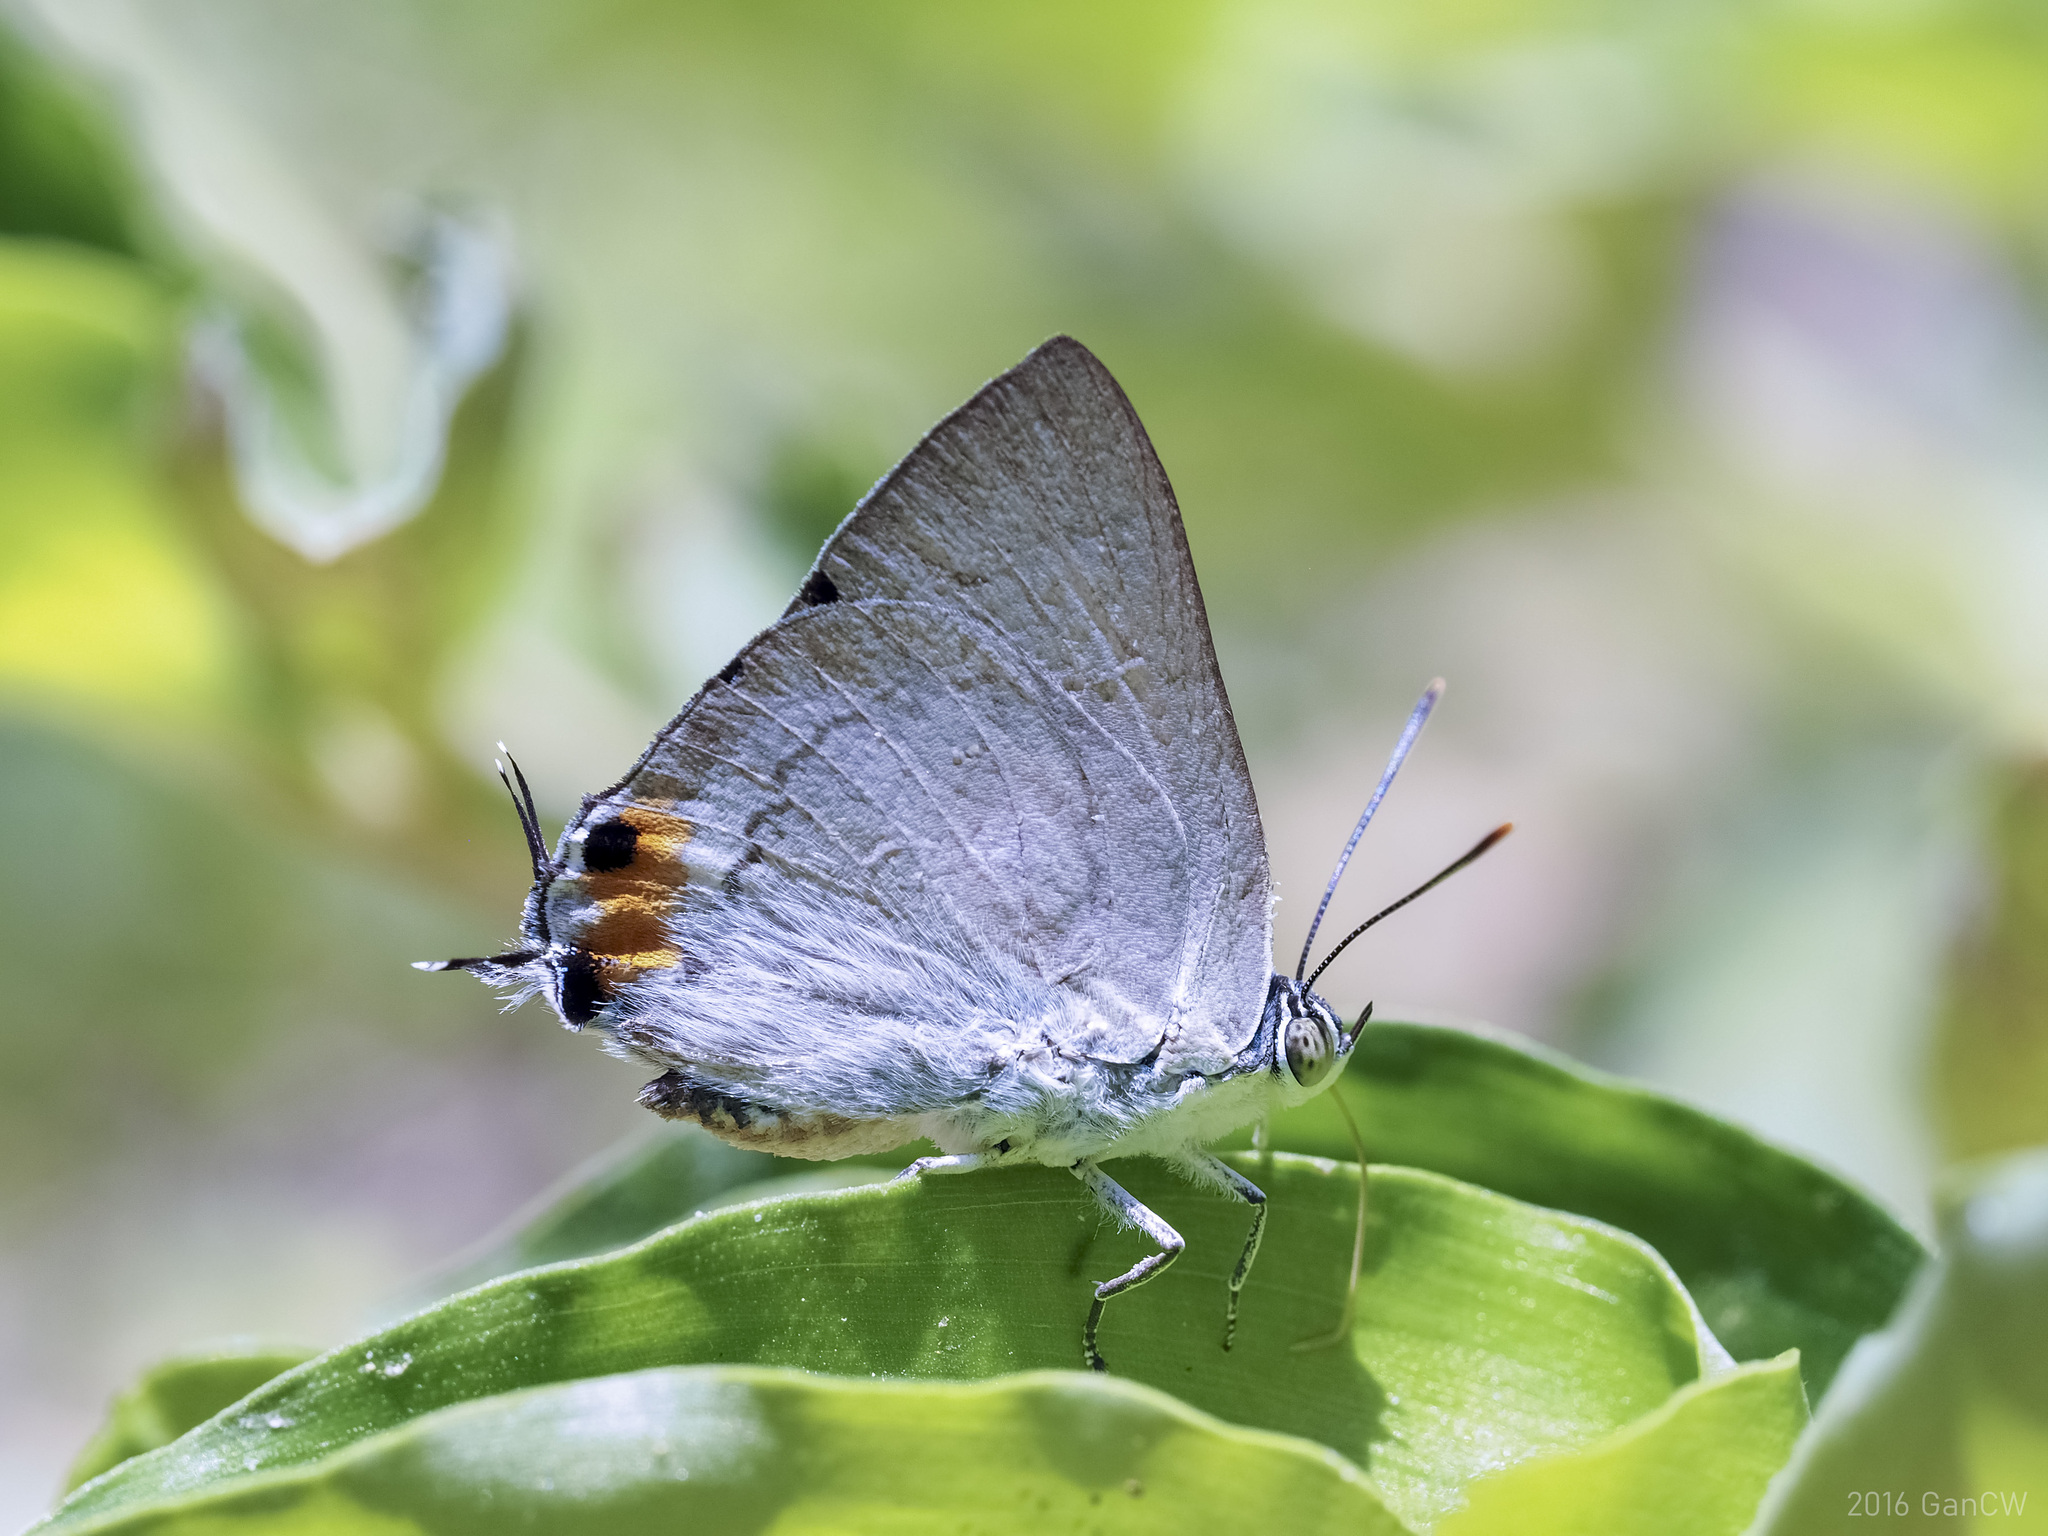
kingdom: Animalia
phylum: Arthropoda
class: Insecta
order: Lepidoptera
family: Lycaenidae
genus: Ancema
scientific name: Ancema blanka
